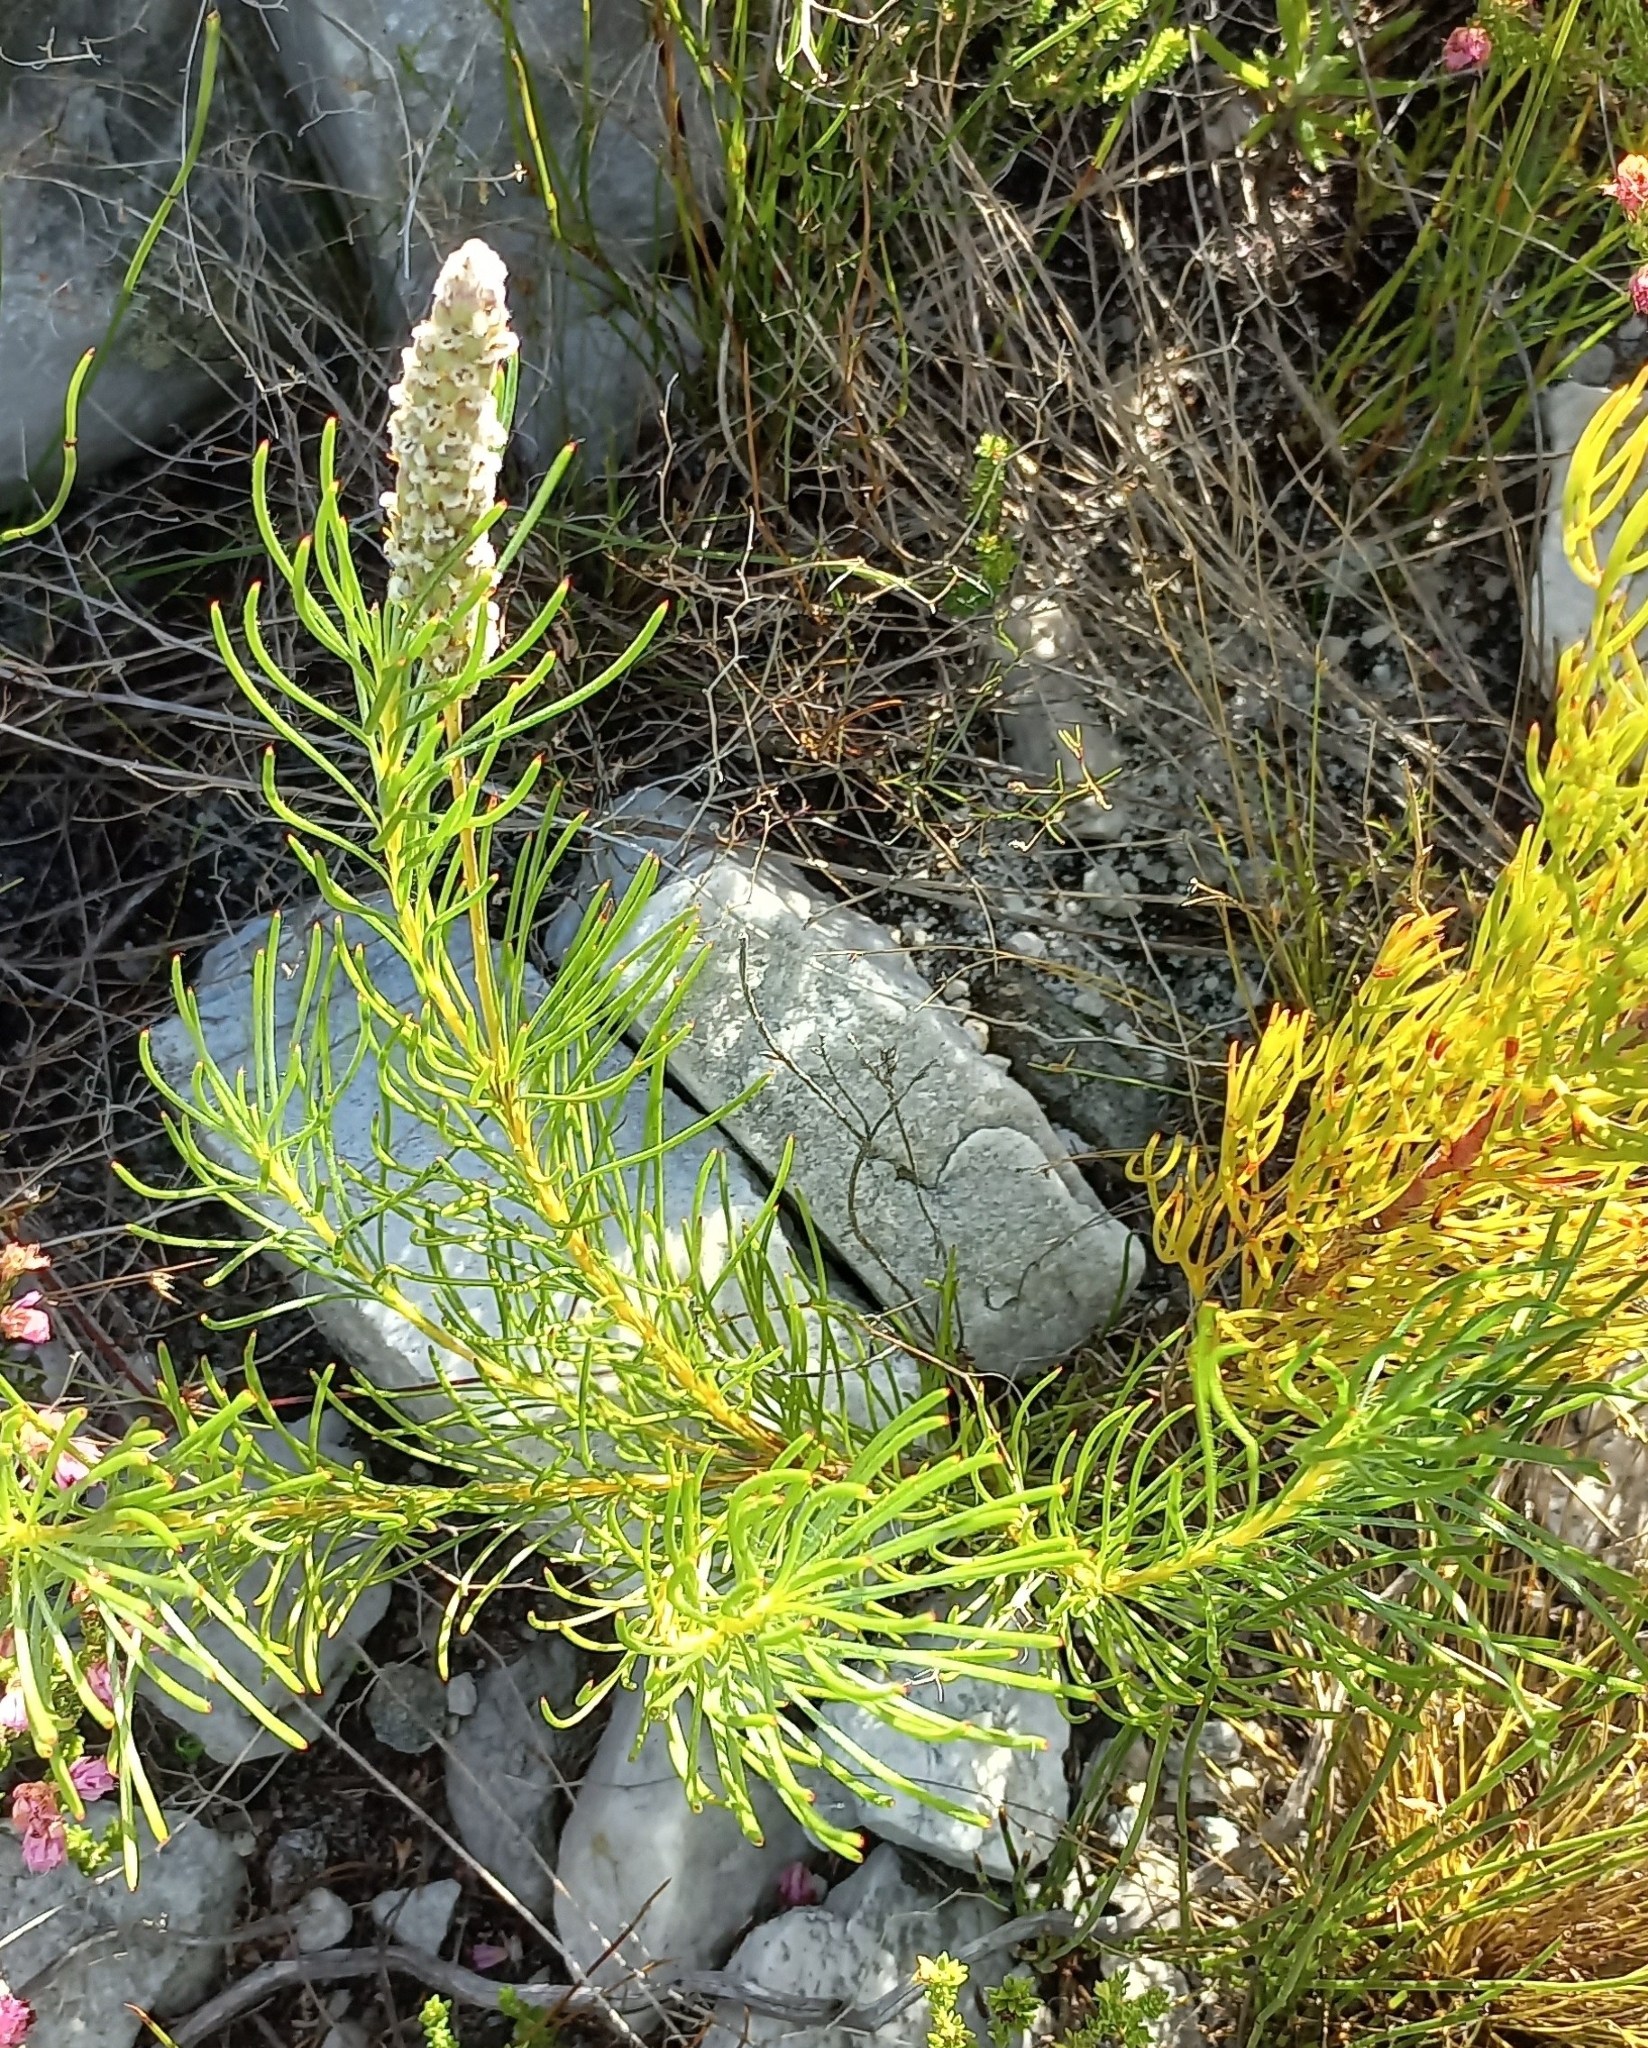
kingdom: Plantae
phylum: Tracheophyta
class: Magnoliopsida
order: Proteales
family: Proteaceae
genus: Spatalla
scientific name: Spatalla curvifolia
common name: White-stalked spoon
